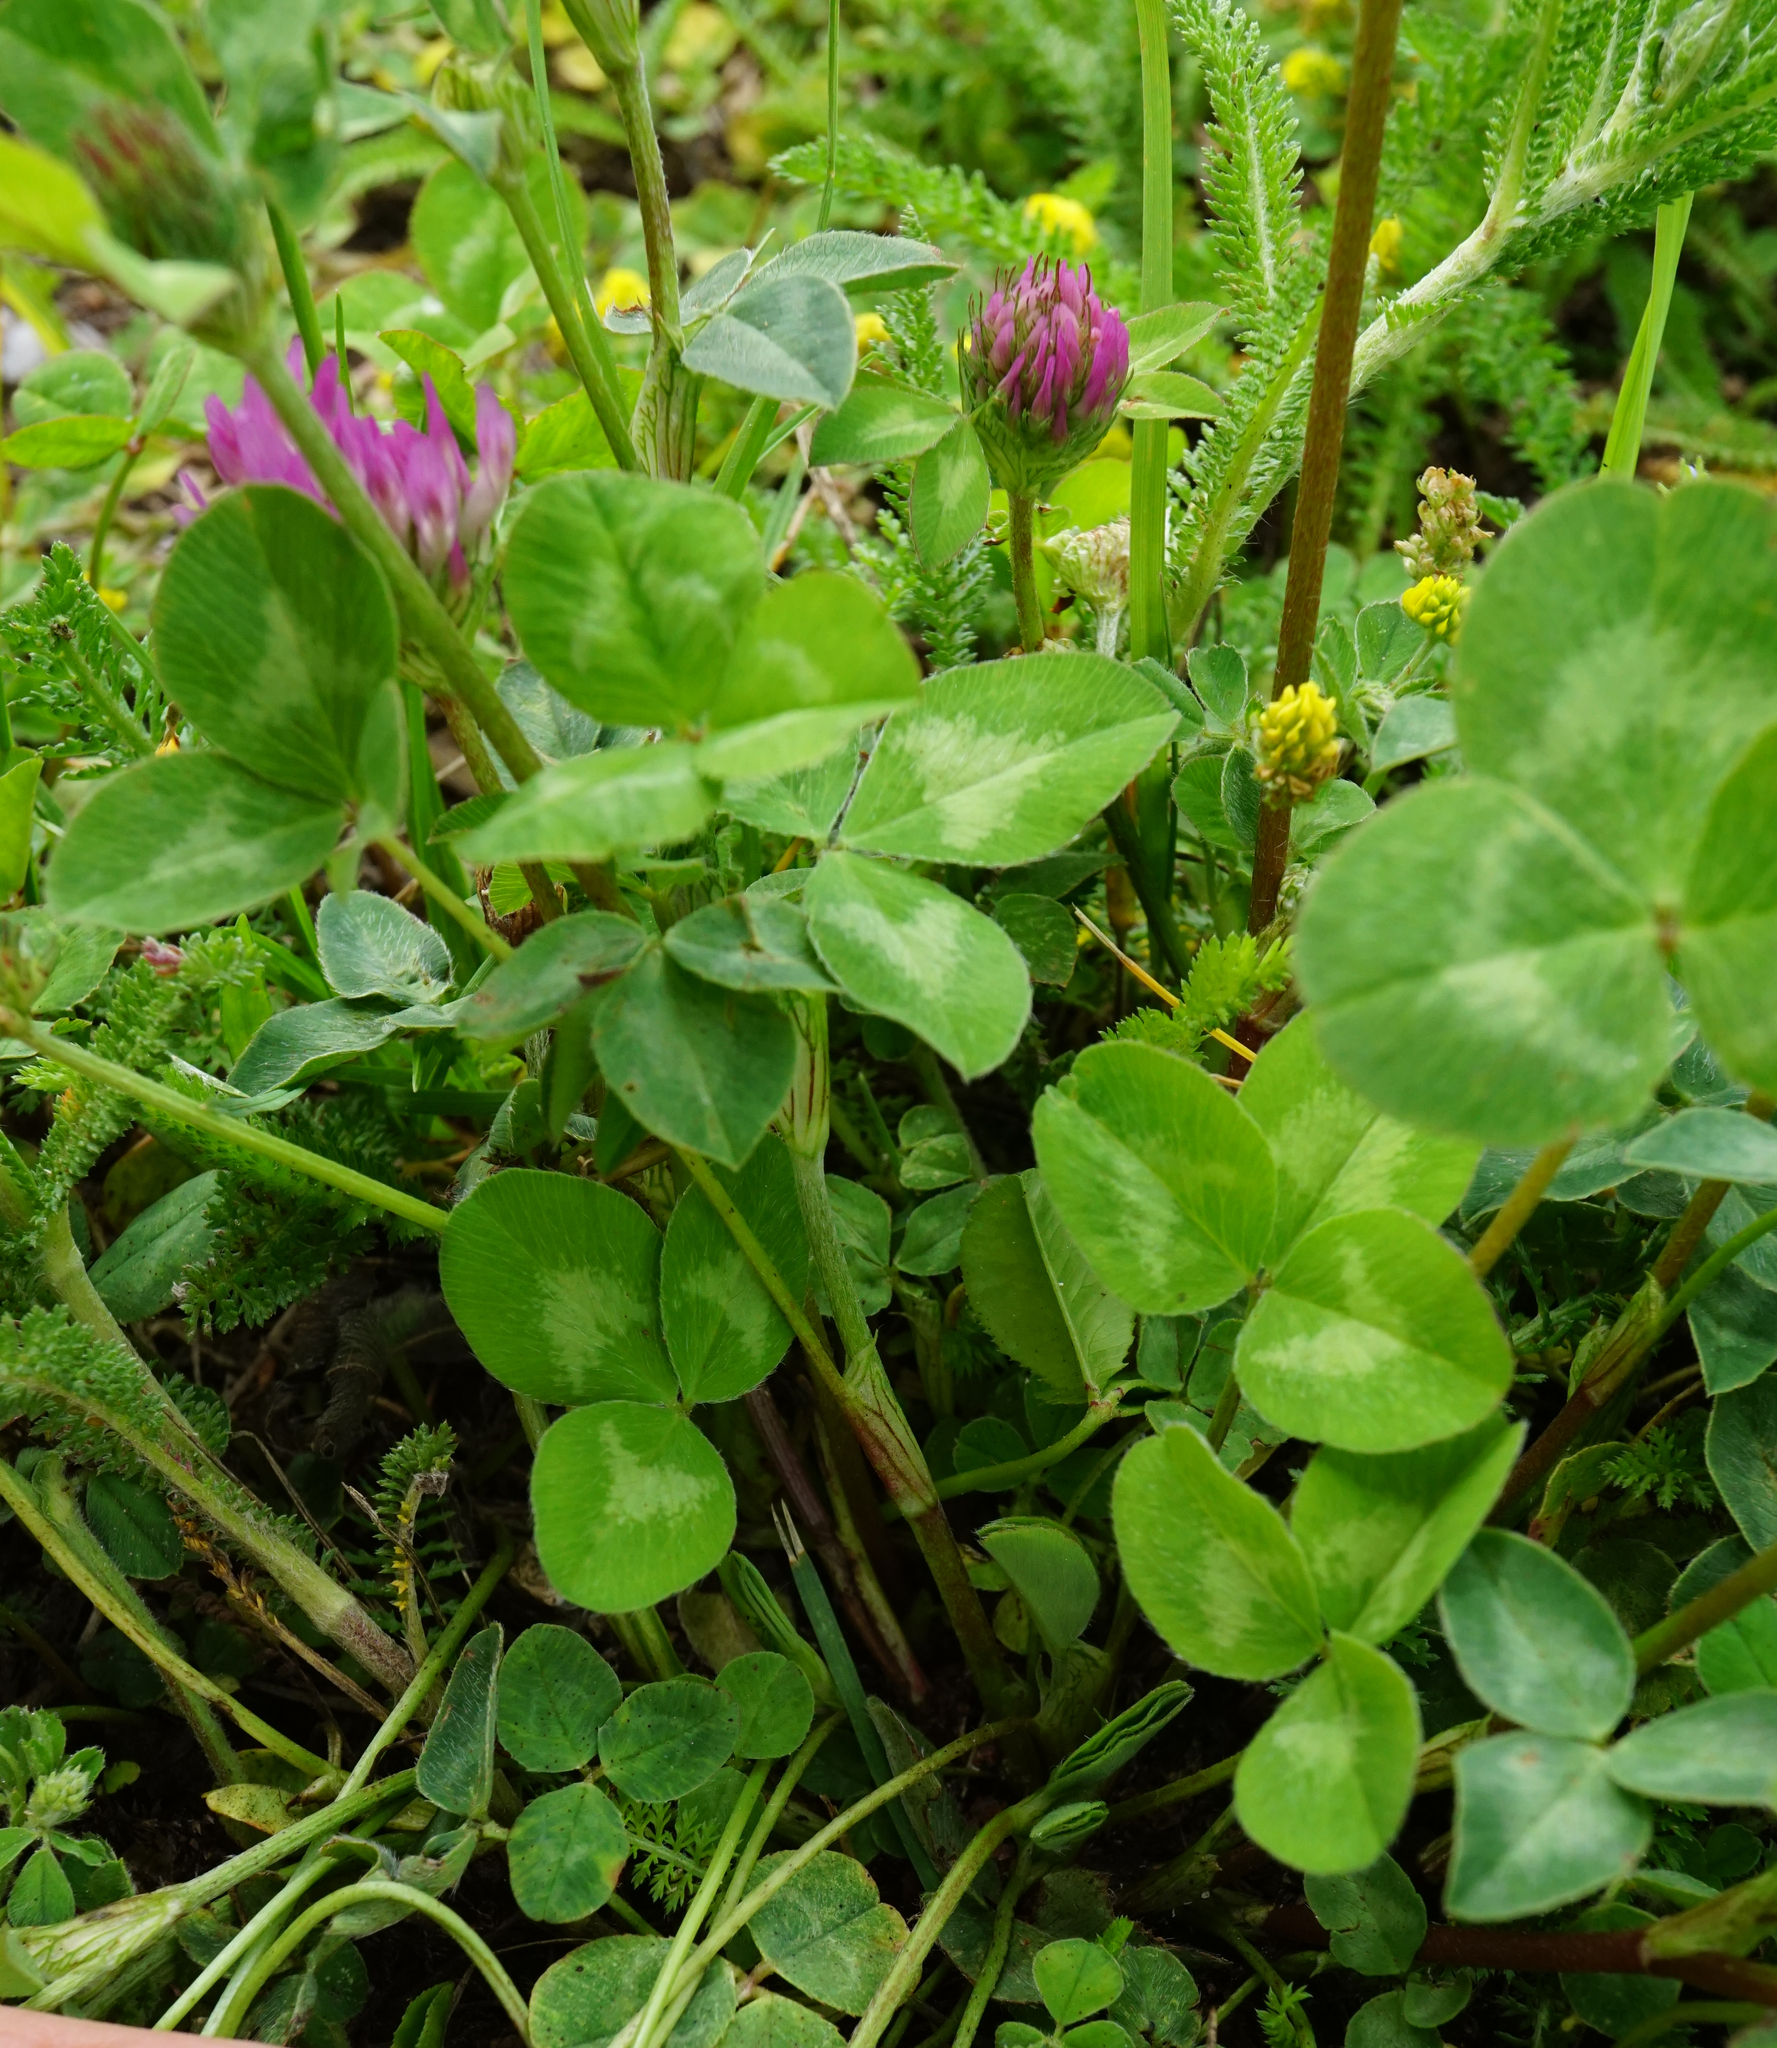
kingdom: Plantae
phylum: Tracheophyta
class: Magnoliopsida
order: Fabales
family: Fabaceae
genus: Trifolium
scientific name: Trifolium pratense
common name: Red clover
